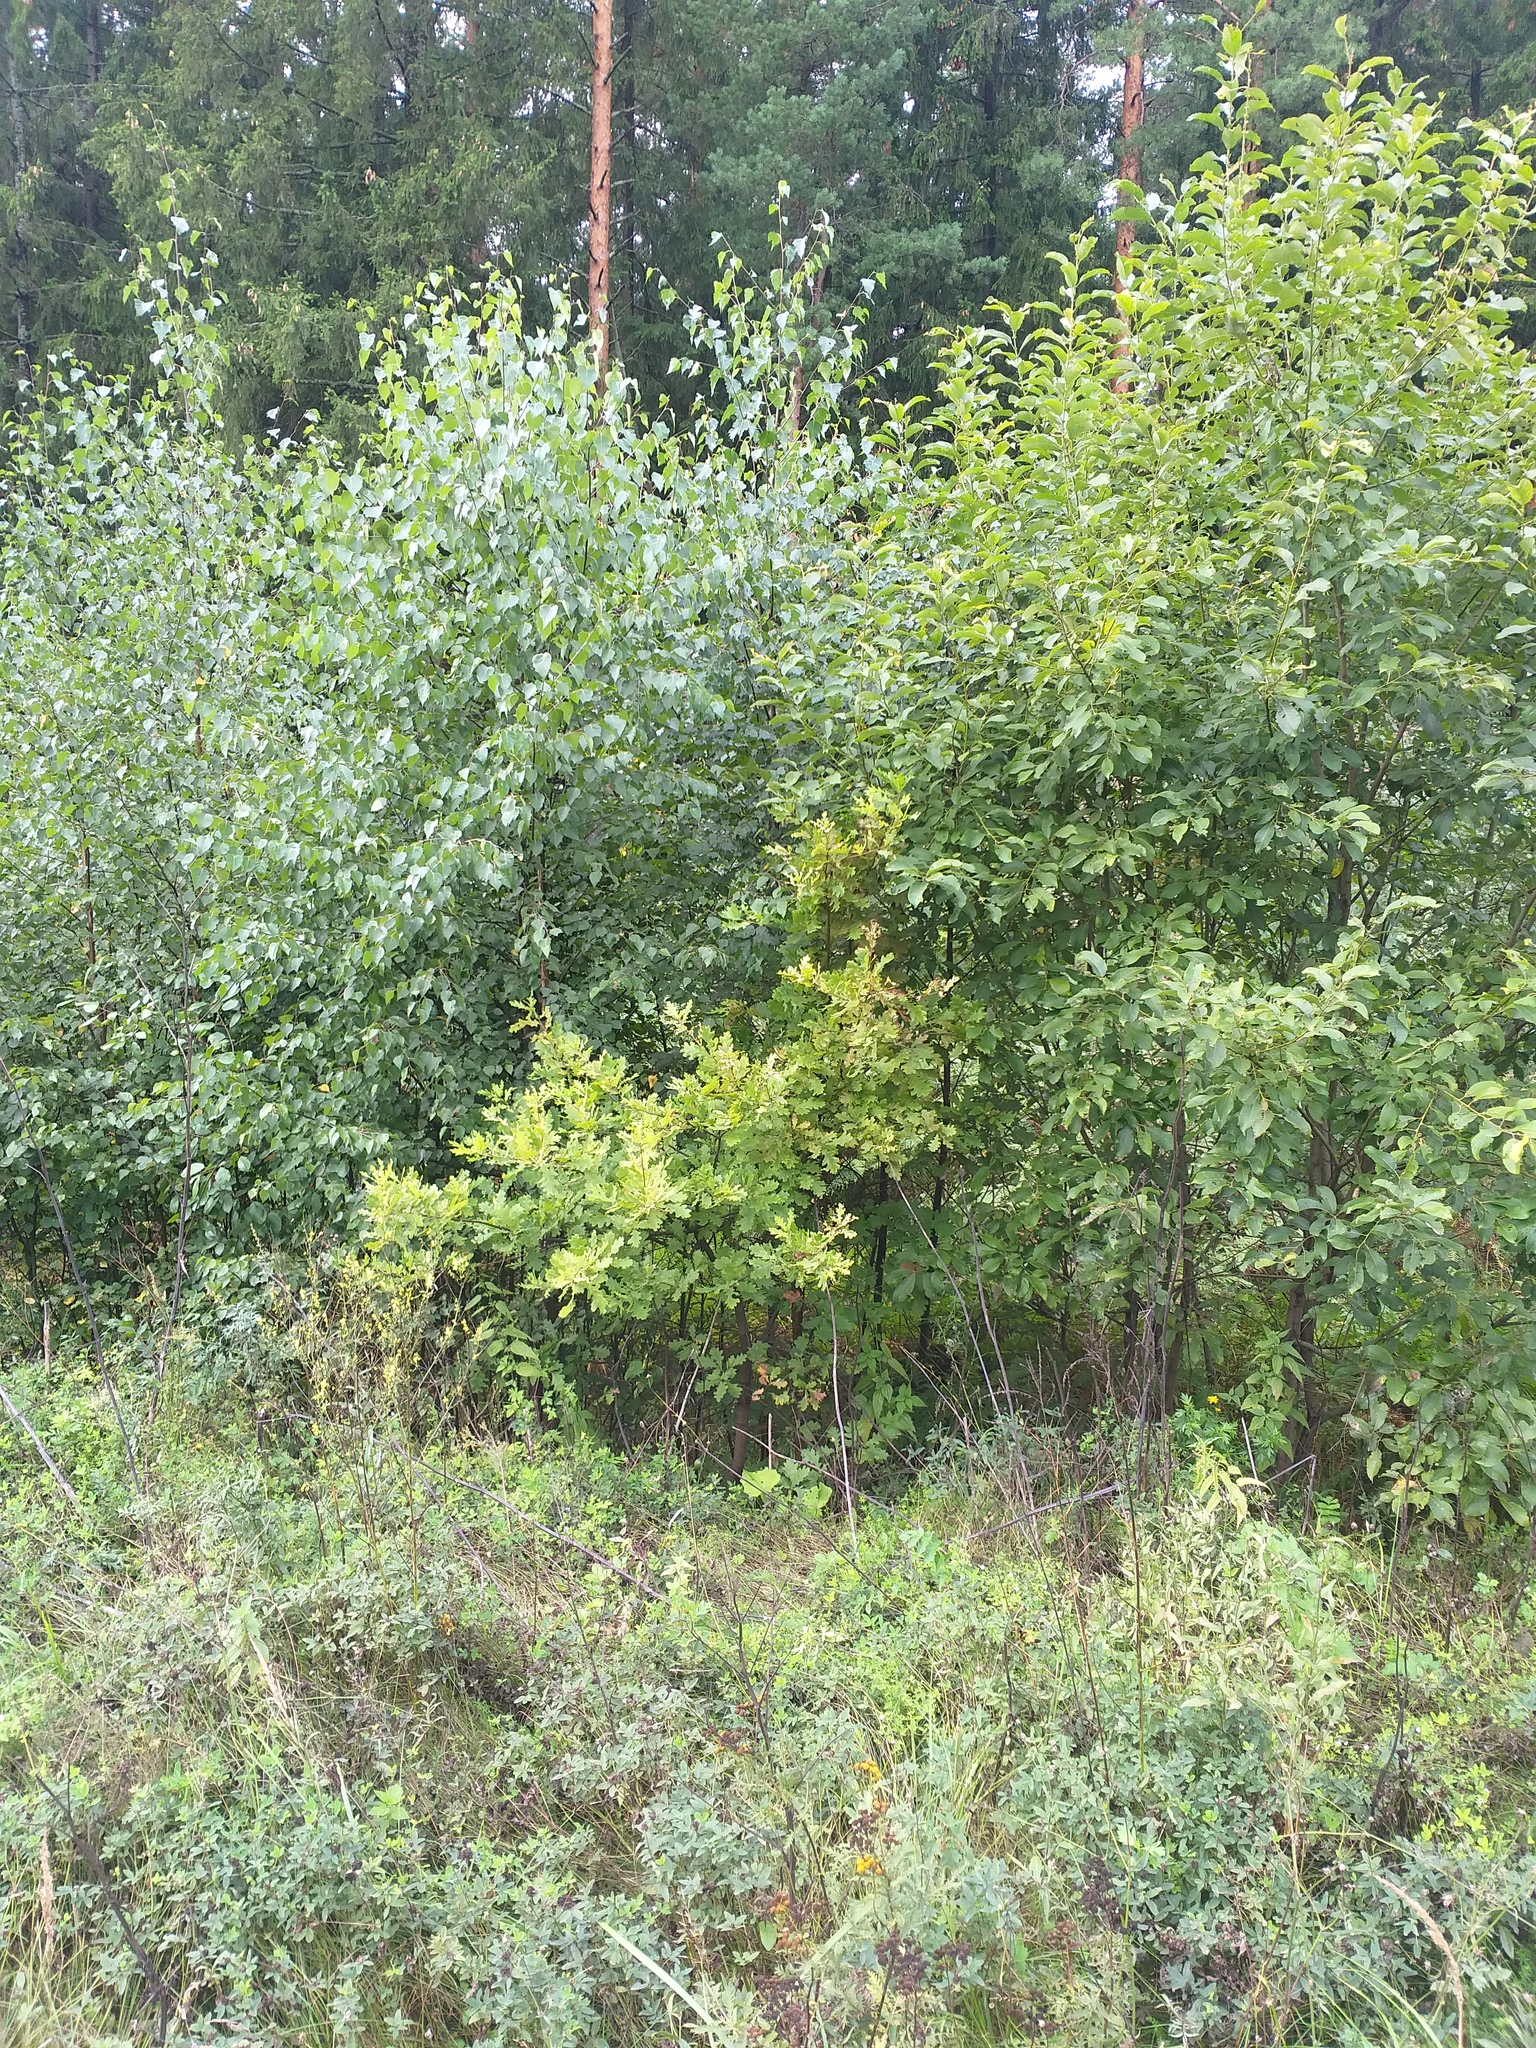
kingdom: Plantae
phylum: Tracheophyta
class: Magnoliopsida
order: Fagales
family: Fagaceae
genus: Quercus
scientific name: Quercus robur
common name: Pedunculate oak
